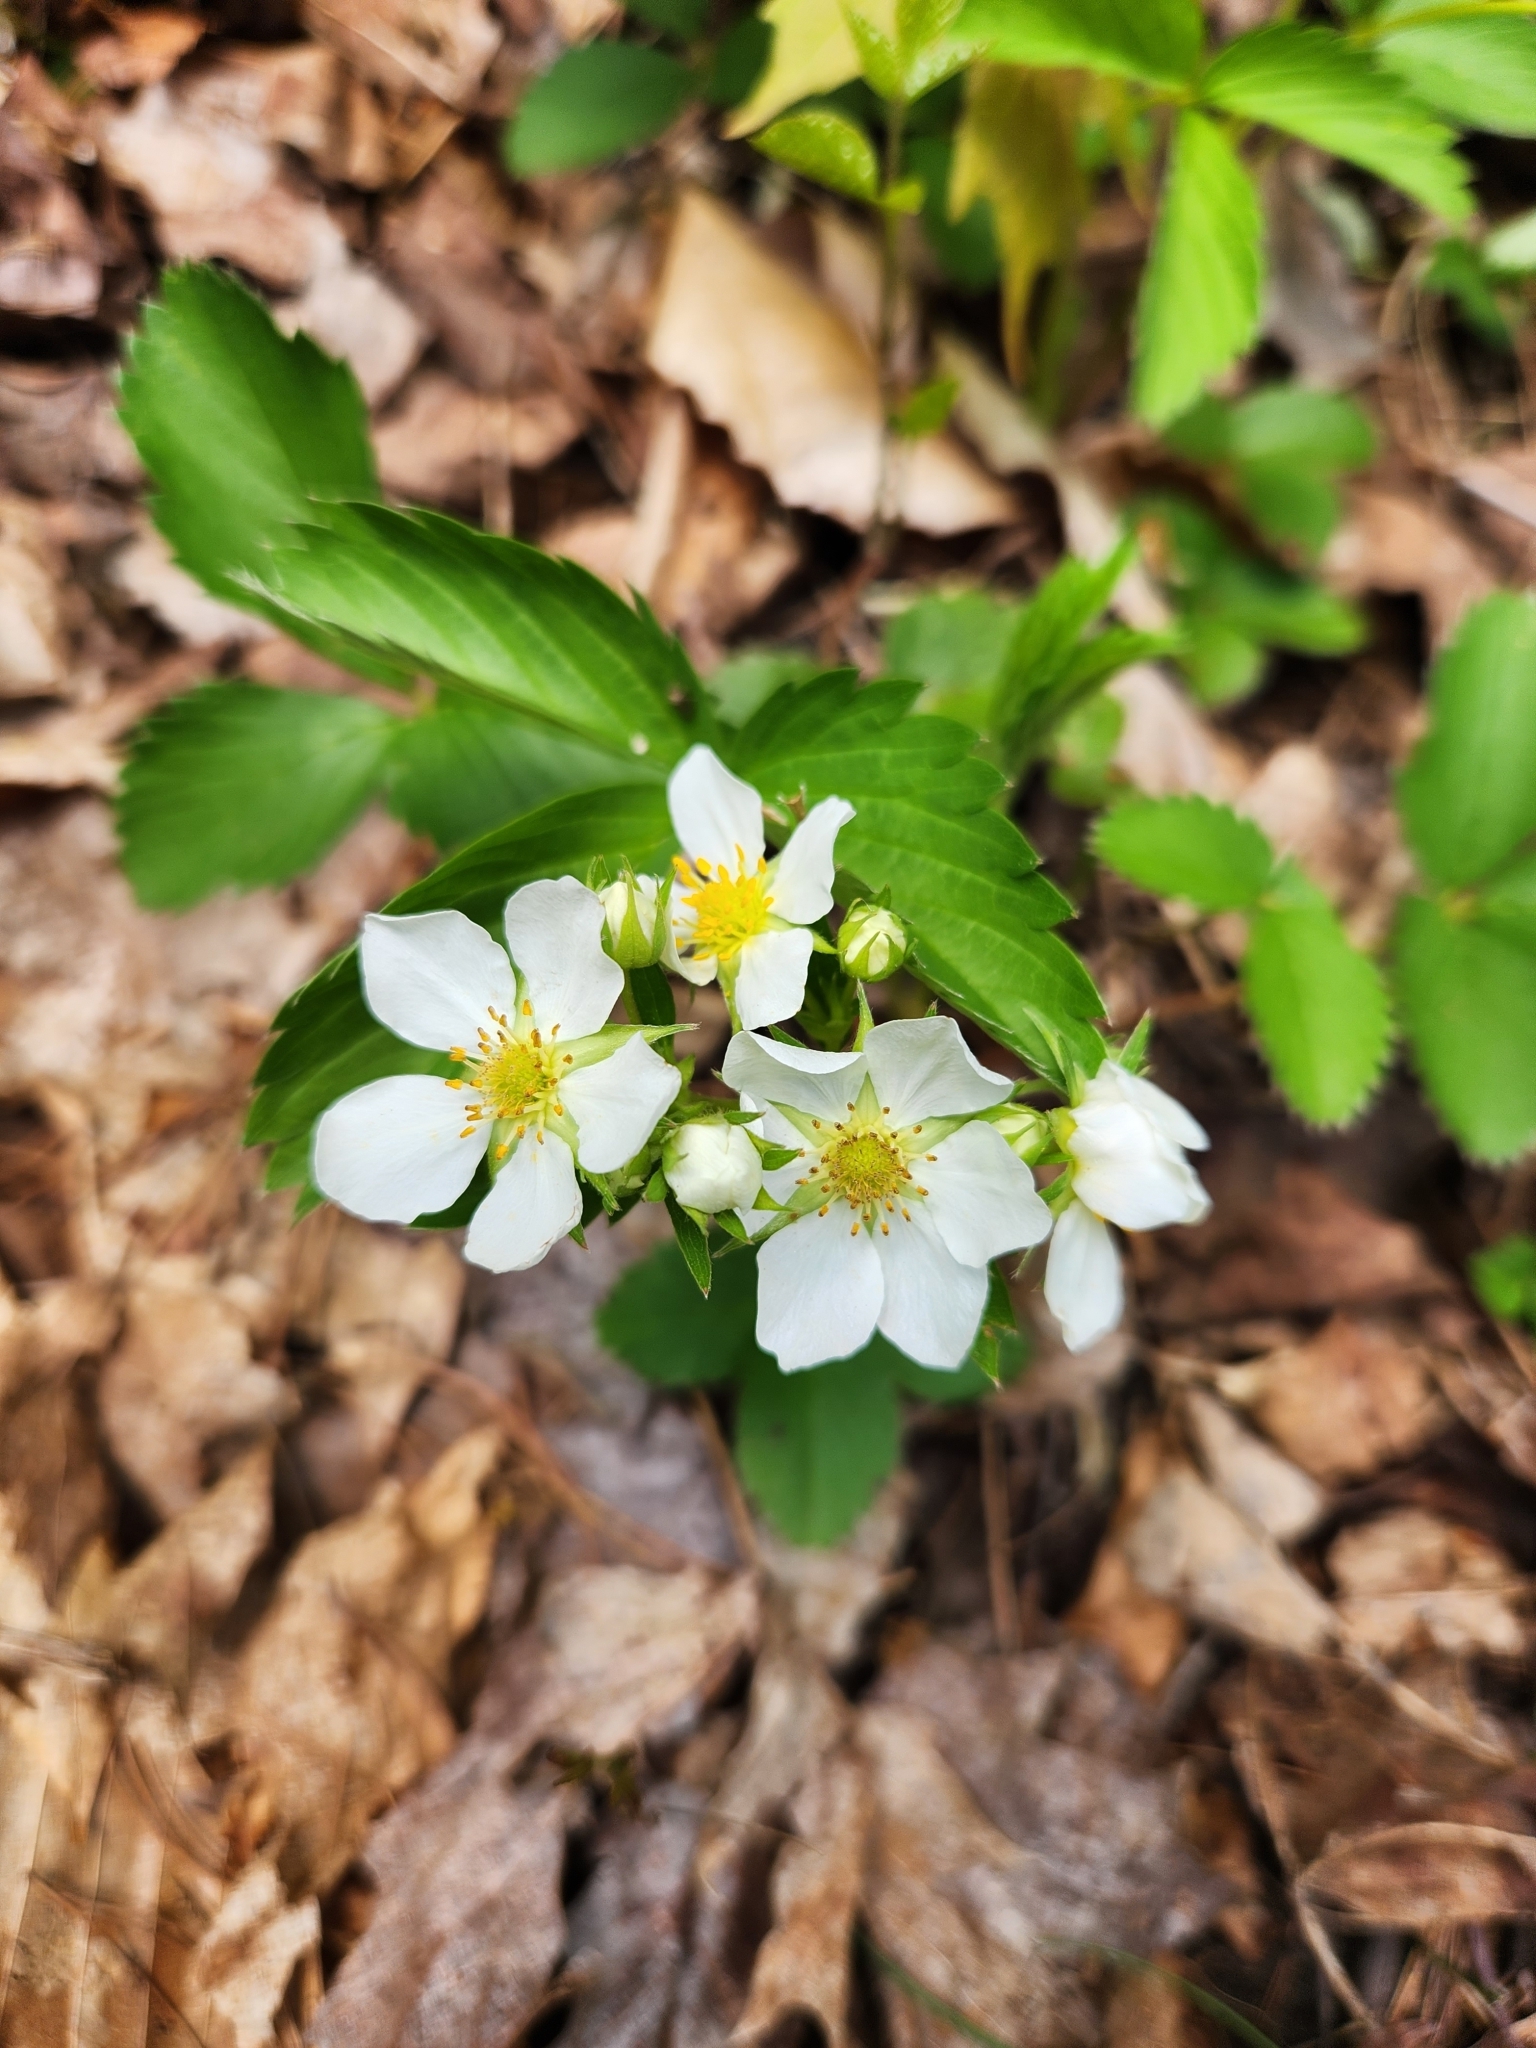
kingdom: Plantae
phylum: Tracheophyta
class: Magnoliopsida
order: Rosales
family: Rosaceae
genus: Fragaria
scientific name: Fragaria virginiana
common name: Thickleaved wild strawberry
